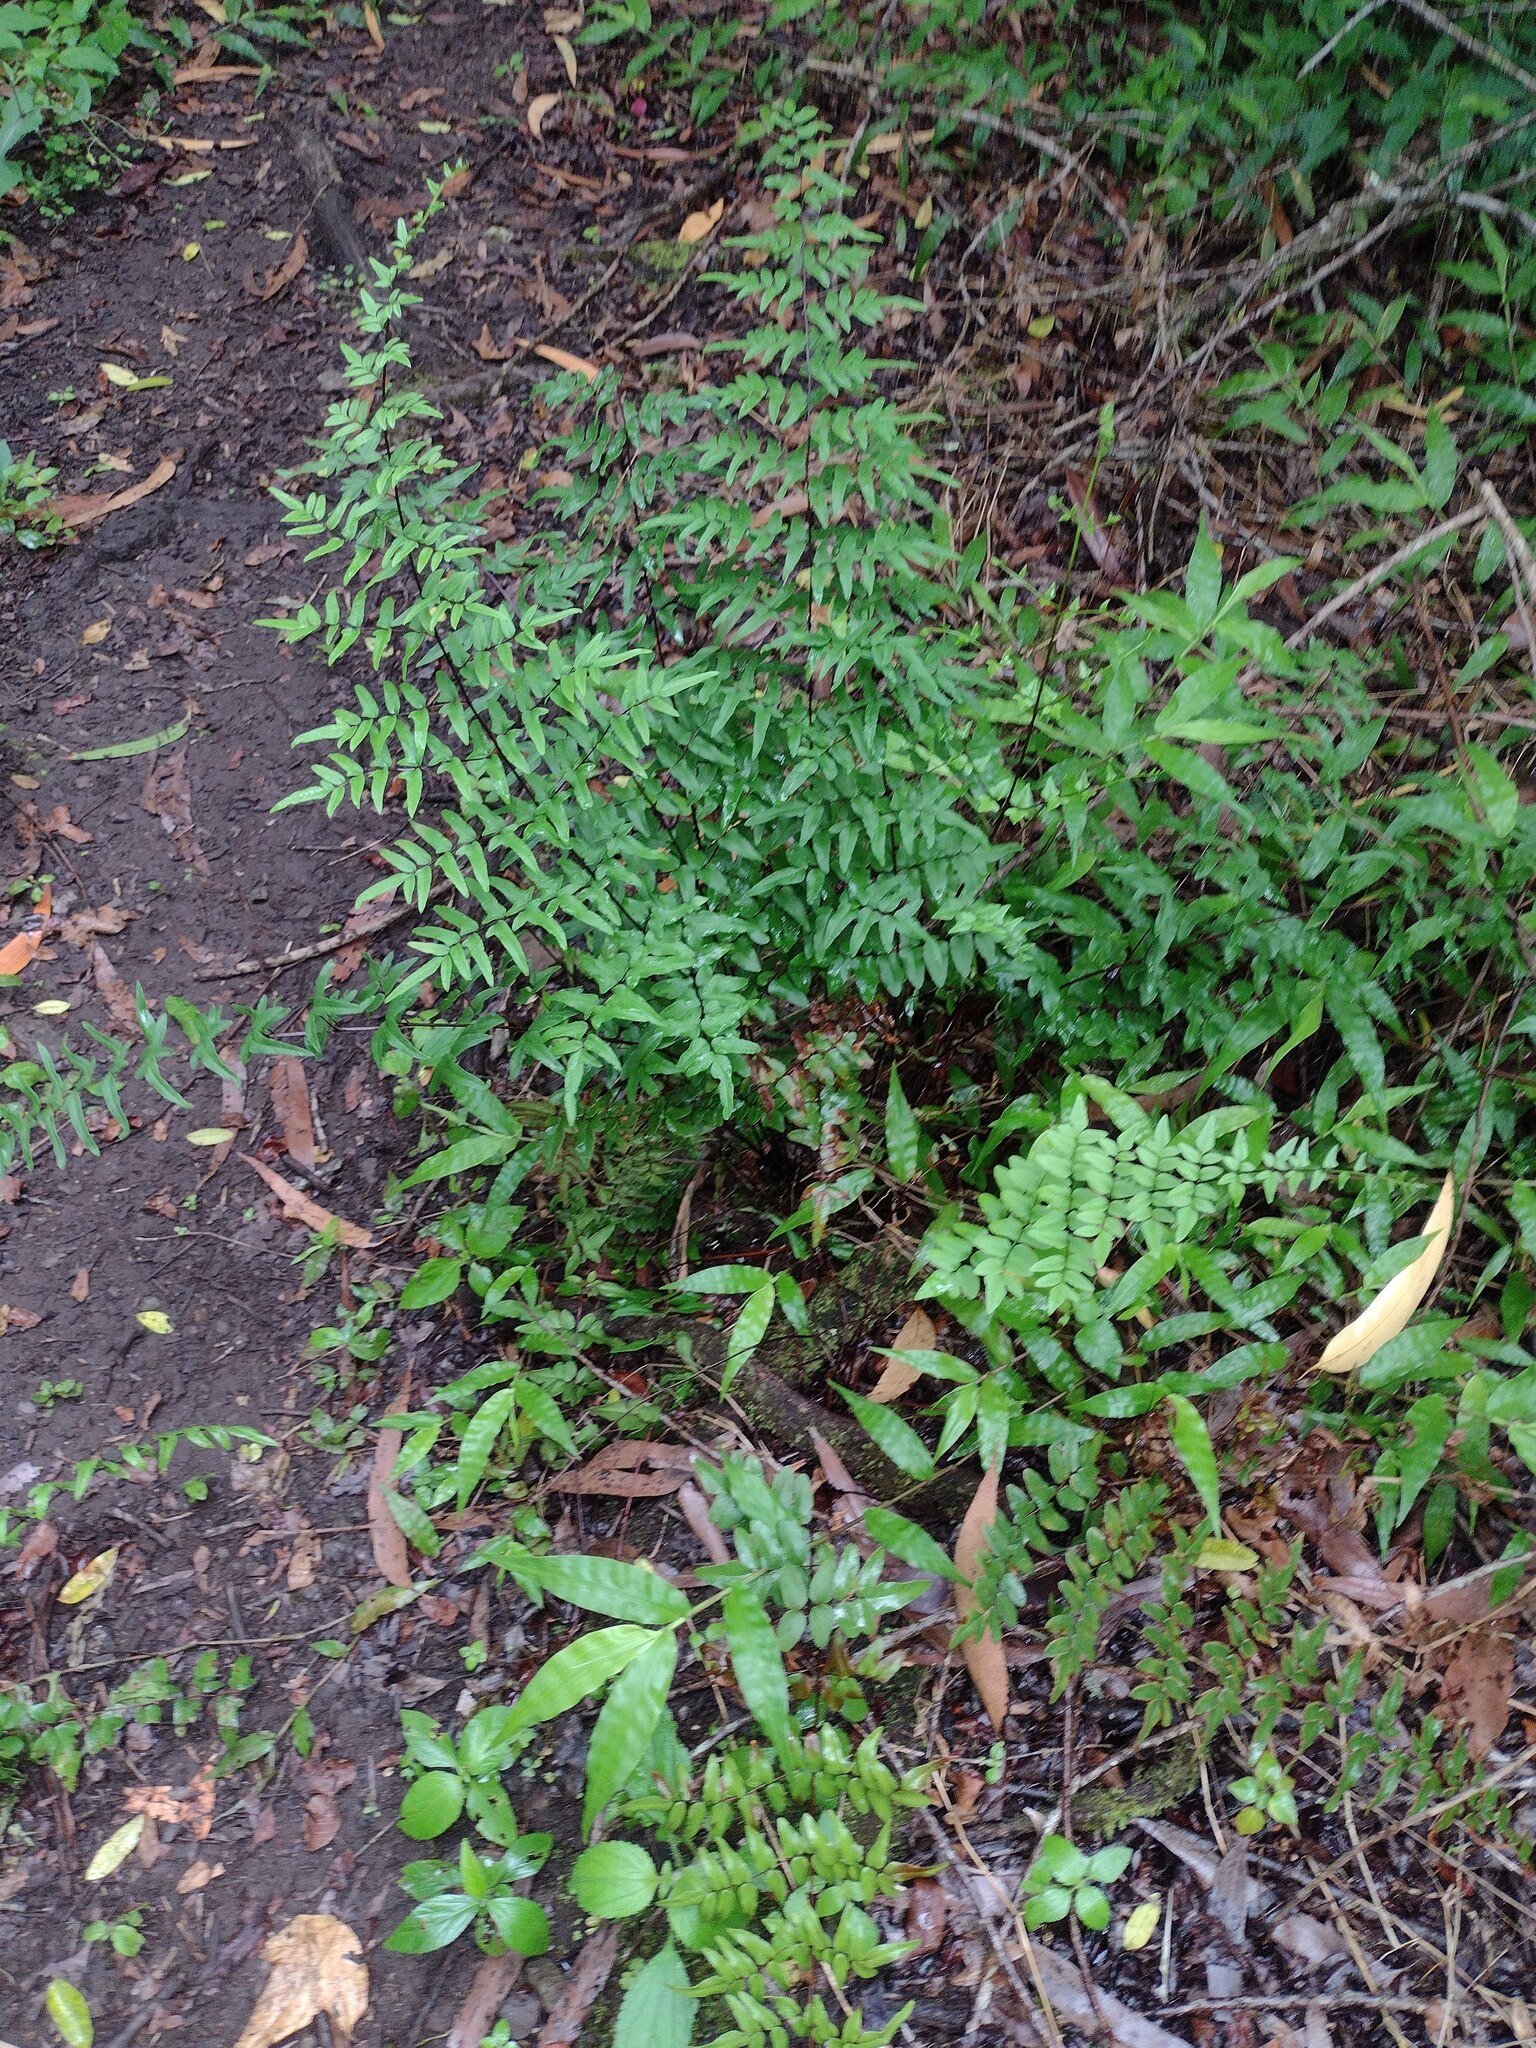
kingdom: Plantae
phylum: Tracheophyta
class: Polypodiopsida
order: Polypodiales
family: Pteridaceae
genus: Cheilanthes
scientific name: Cheilanthes viridis
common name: Green cliffbrake
